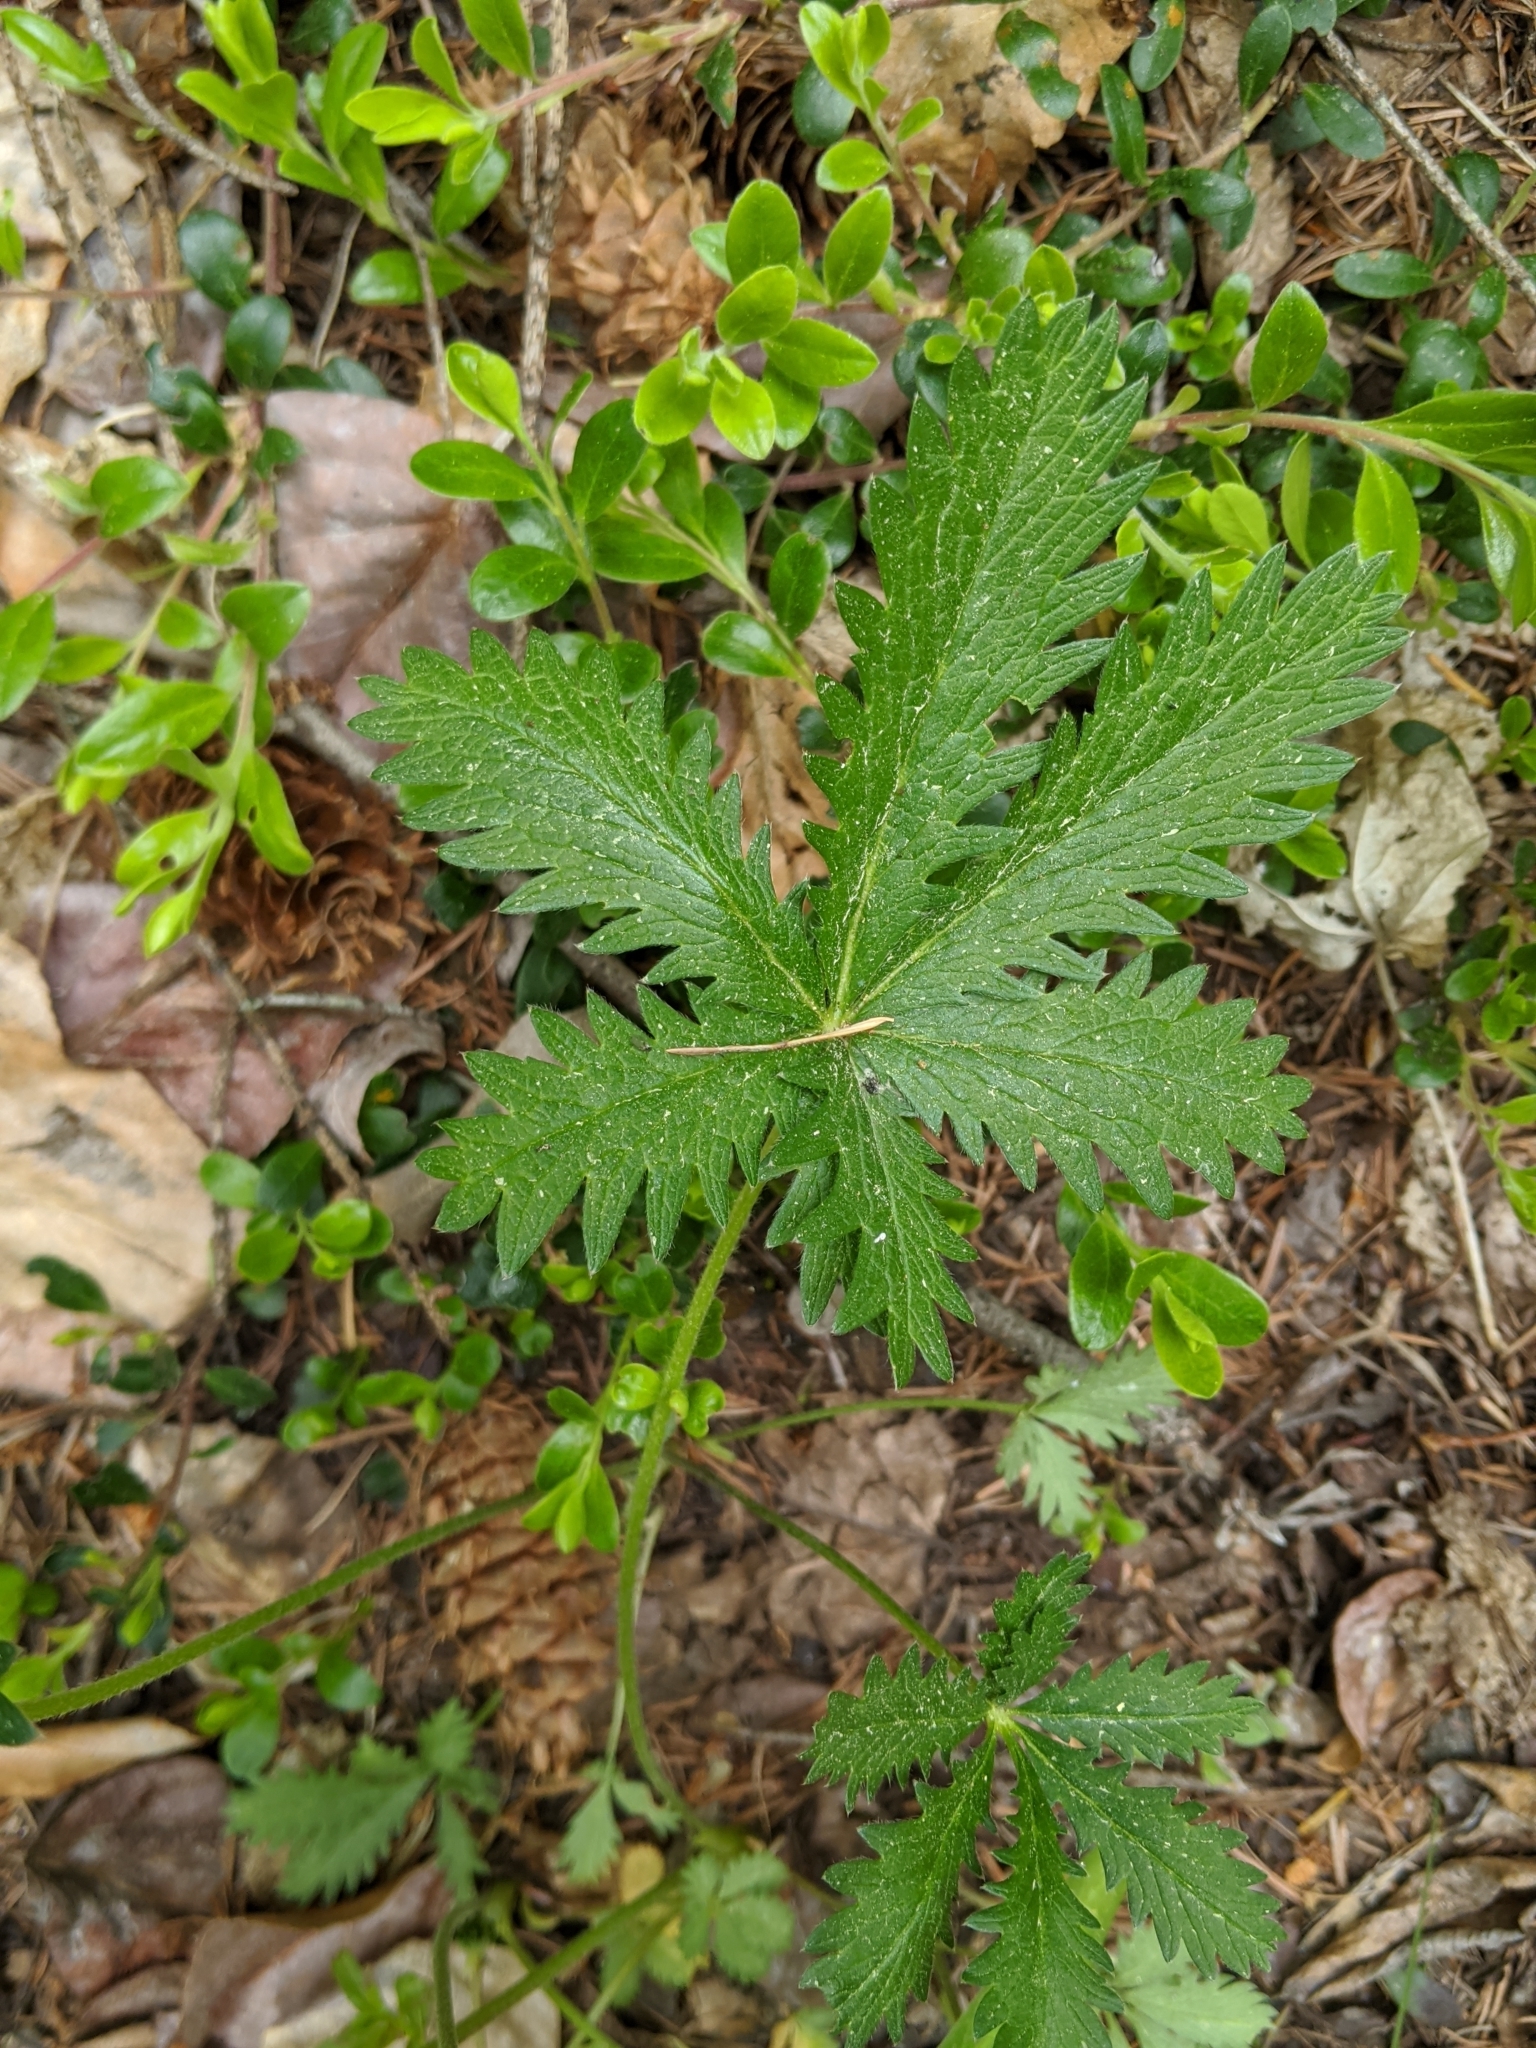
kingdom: Plantae
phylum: Tracheophyta
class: Magnoliopsida
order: Rosales
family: Rosaceae
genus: Potentilla
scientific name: Potentilla recta
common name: Sulphur cinquefoil
